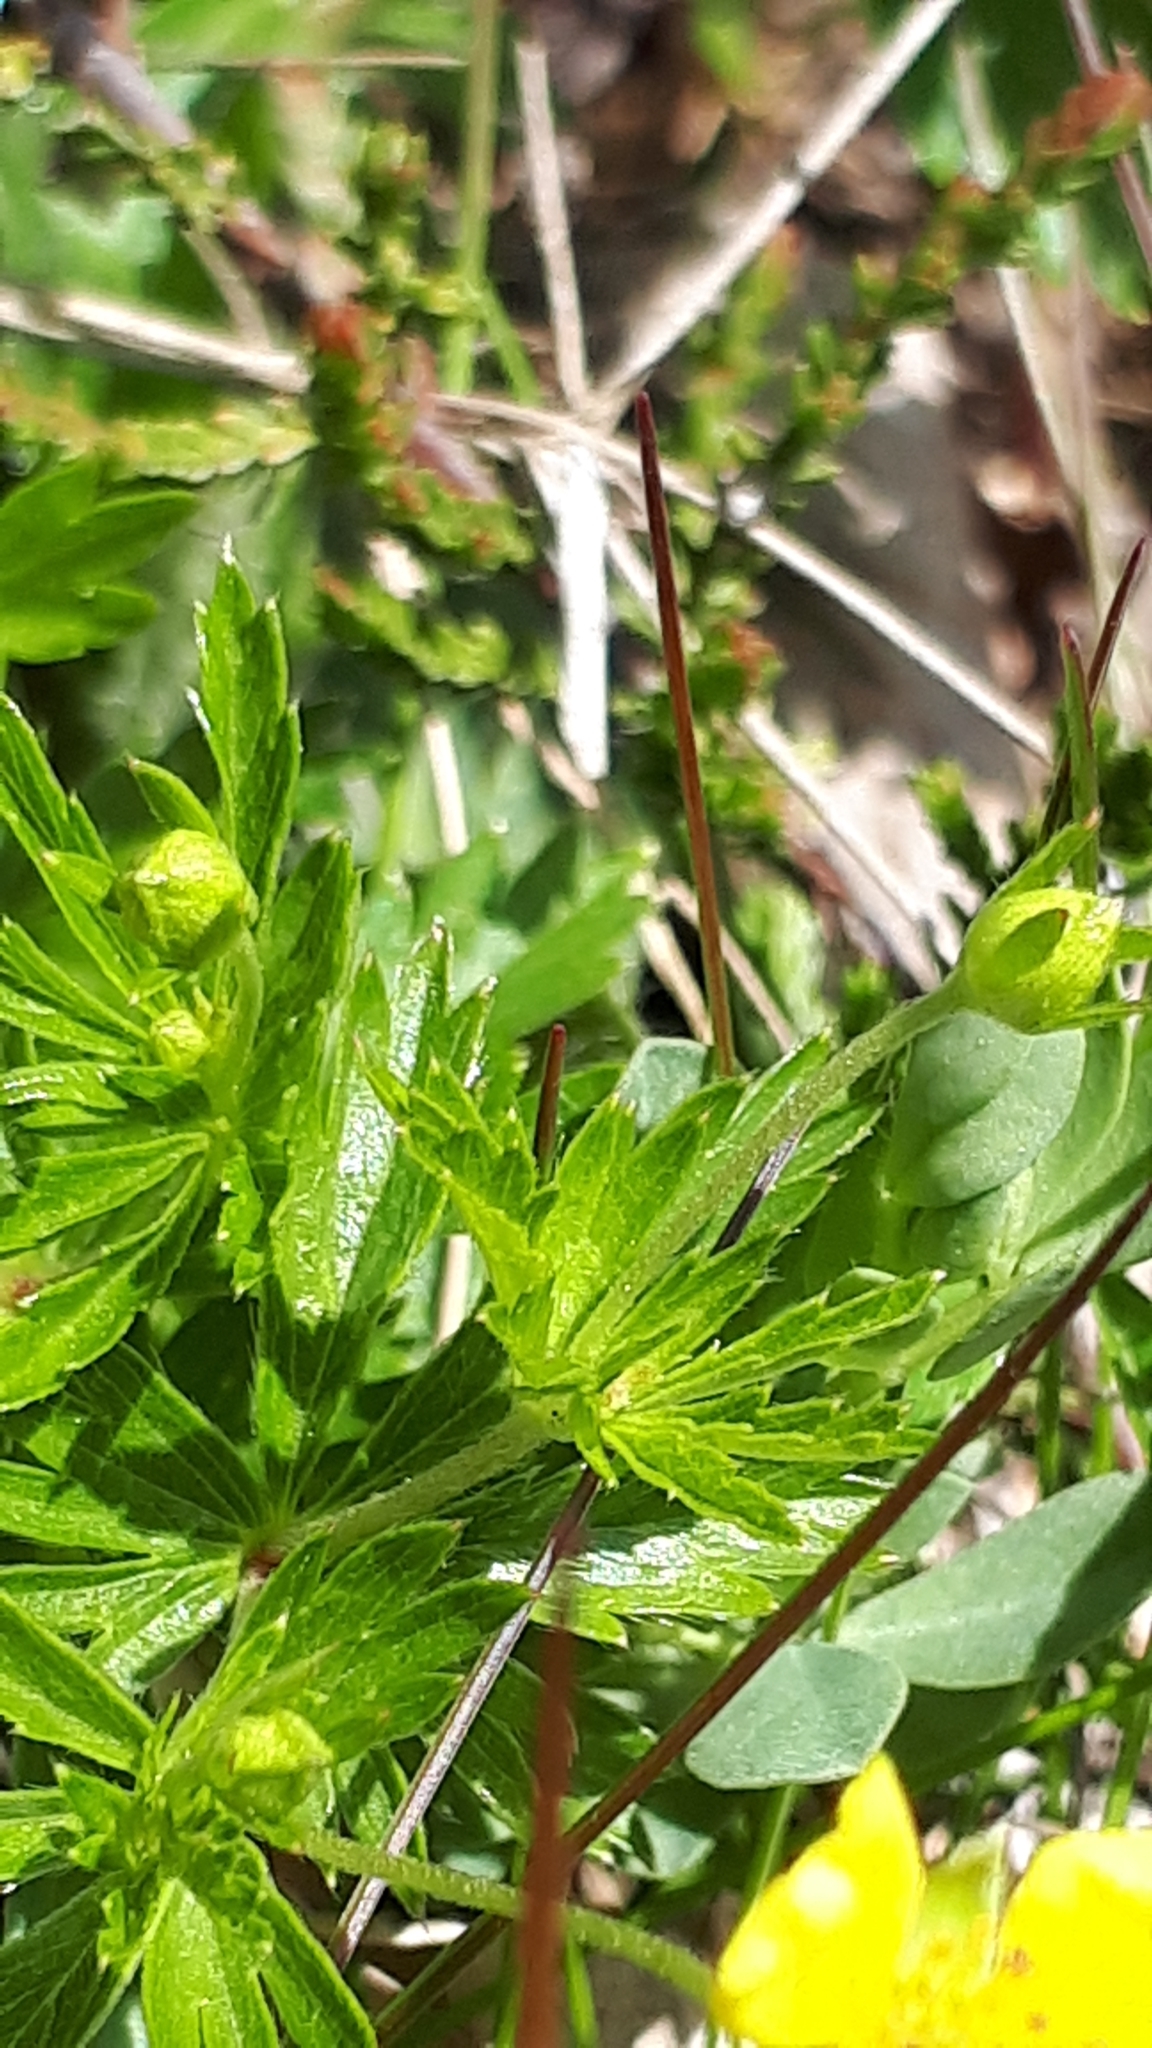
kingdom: Plantae
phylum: Tracheophyta
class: Magnoliopsida
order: Rosales
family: Rosaceae
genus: Potentilla
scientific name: Potentilla erecta
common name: Tormentil
